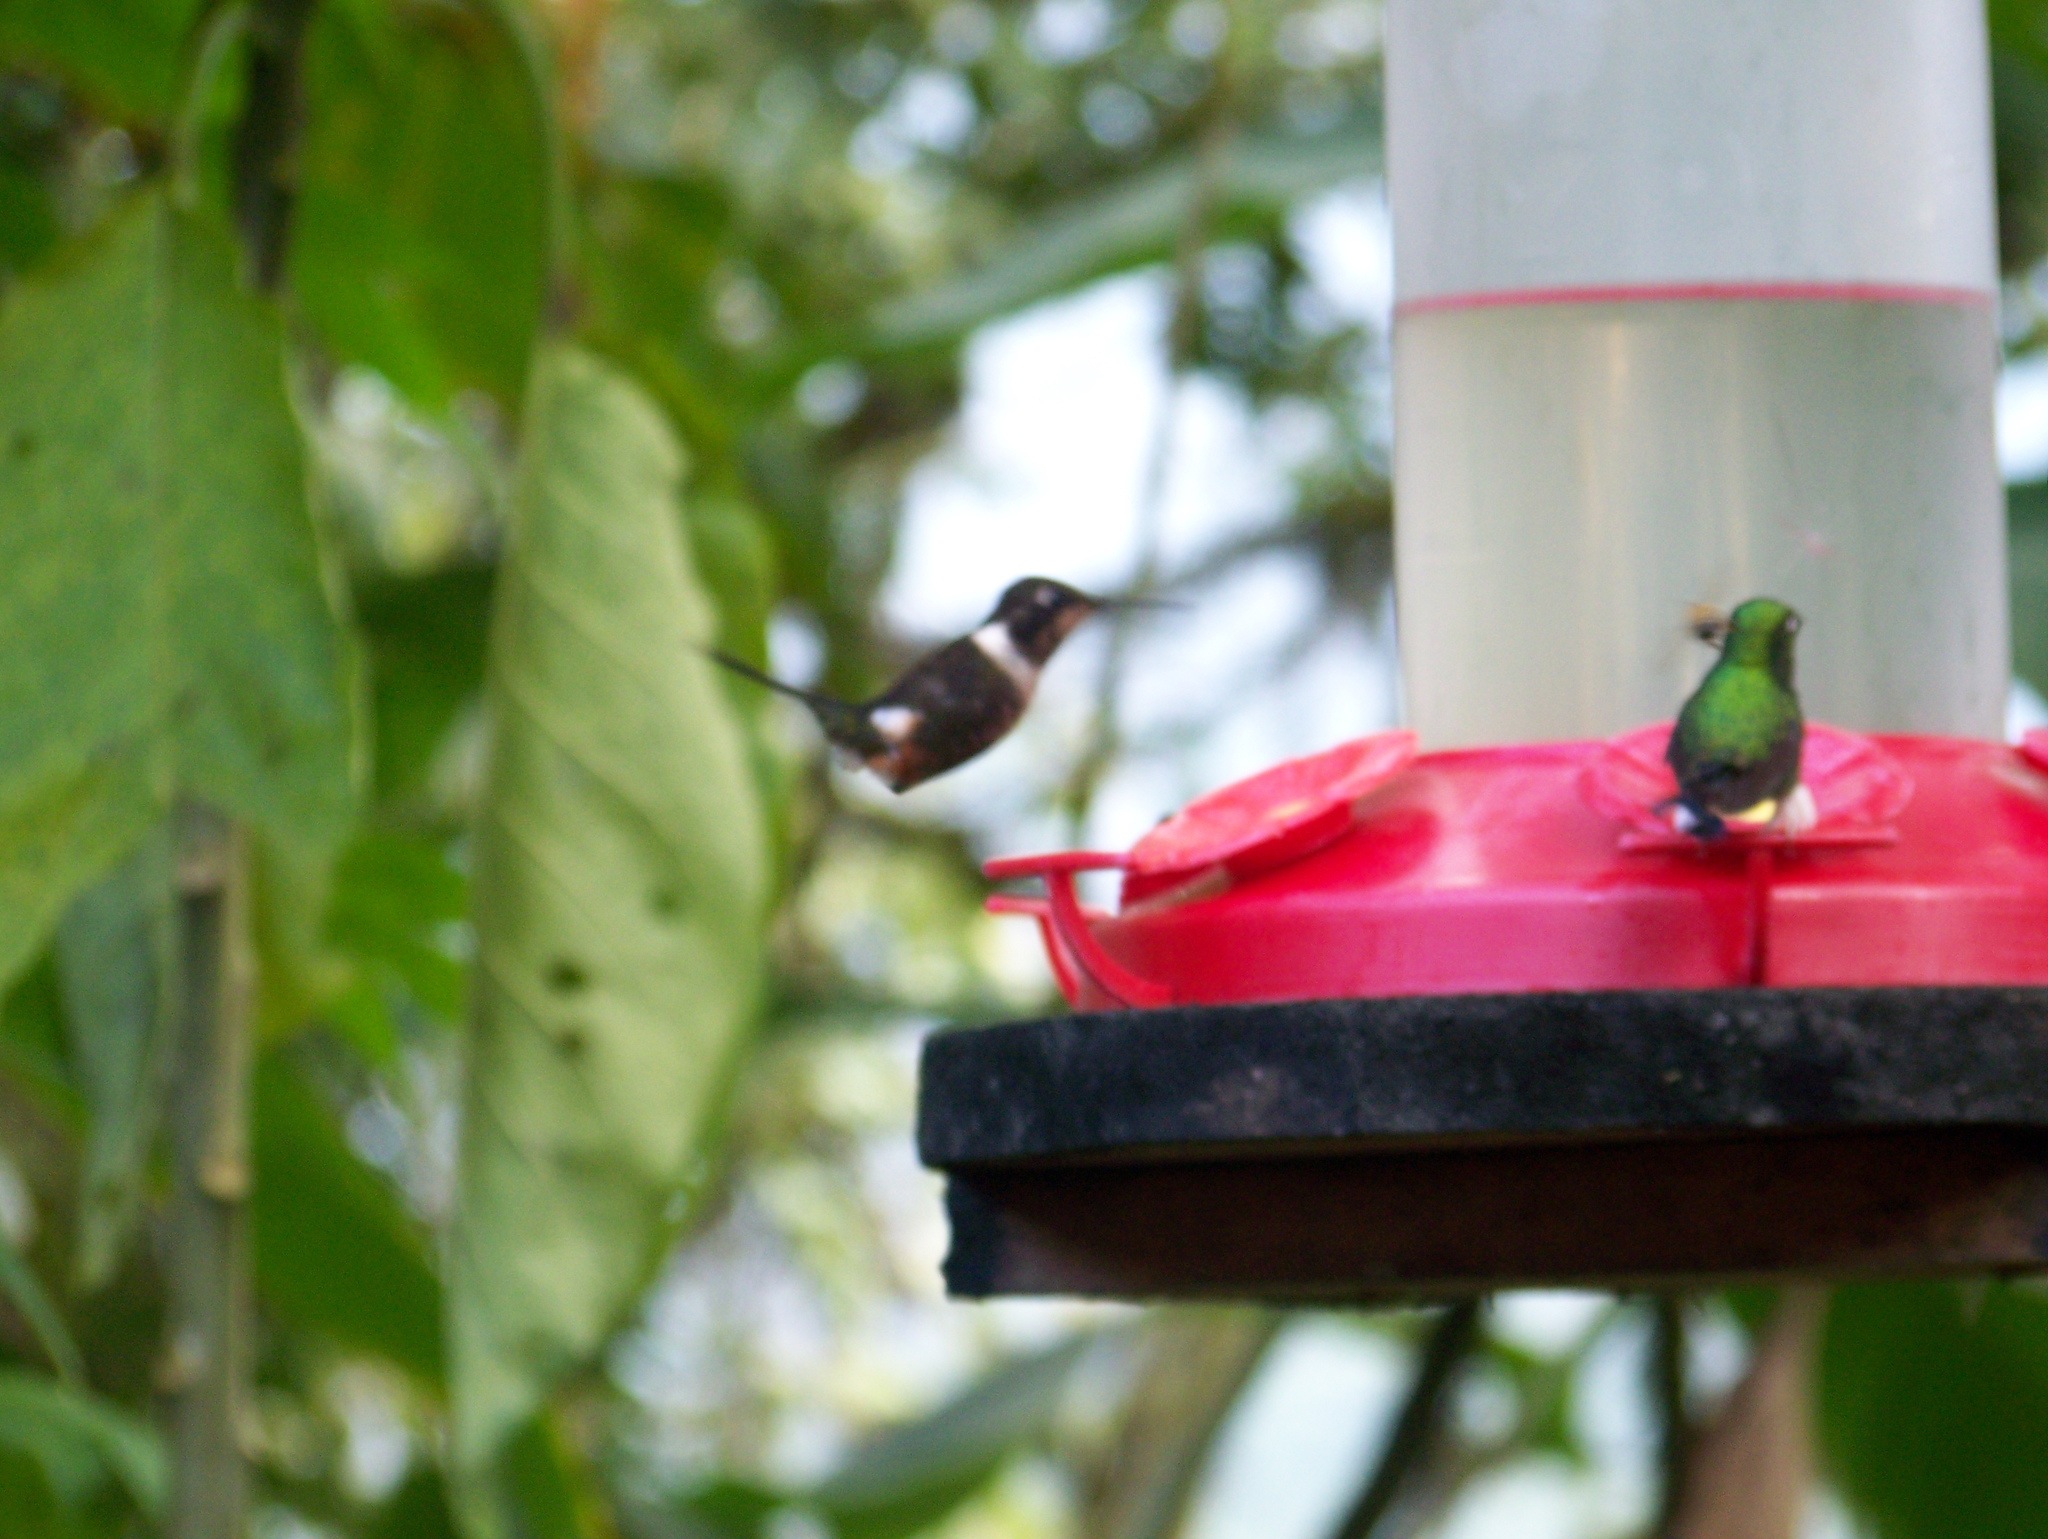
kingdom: Animalia
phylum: Chordata
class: Aves
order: Apodiformes
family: Trochilidae
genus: Calliphlox
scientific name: Calliphlox mitchellii
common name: Purple-throated woodstar
